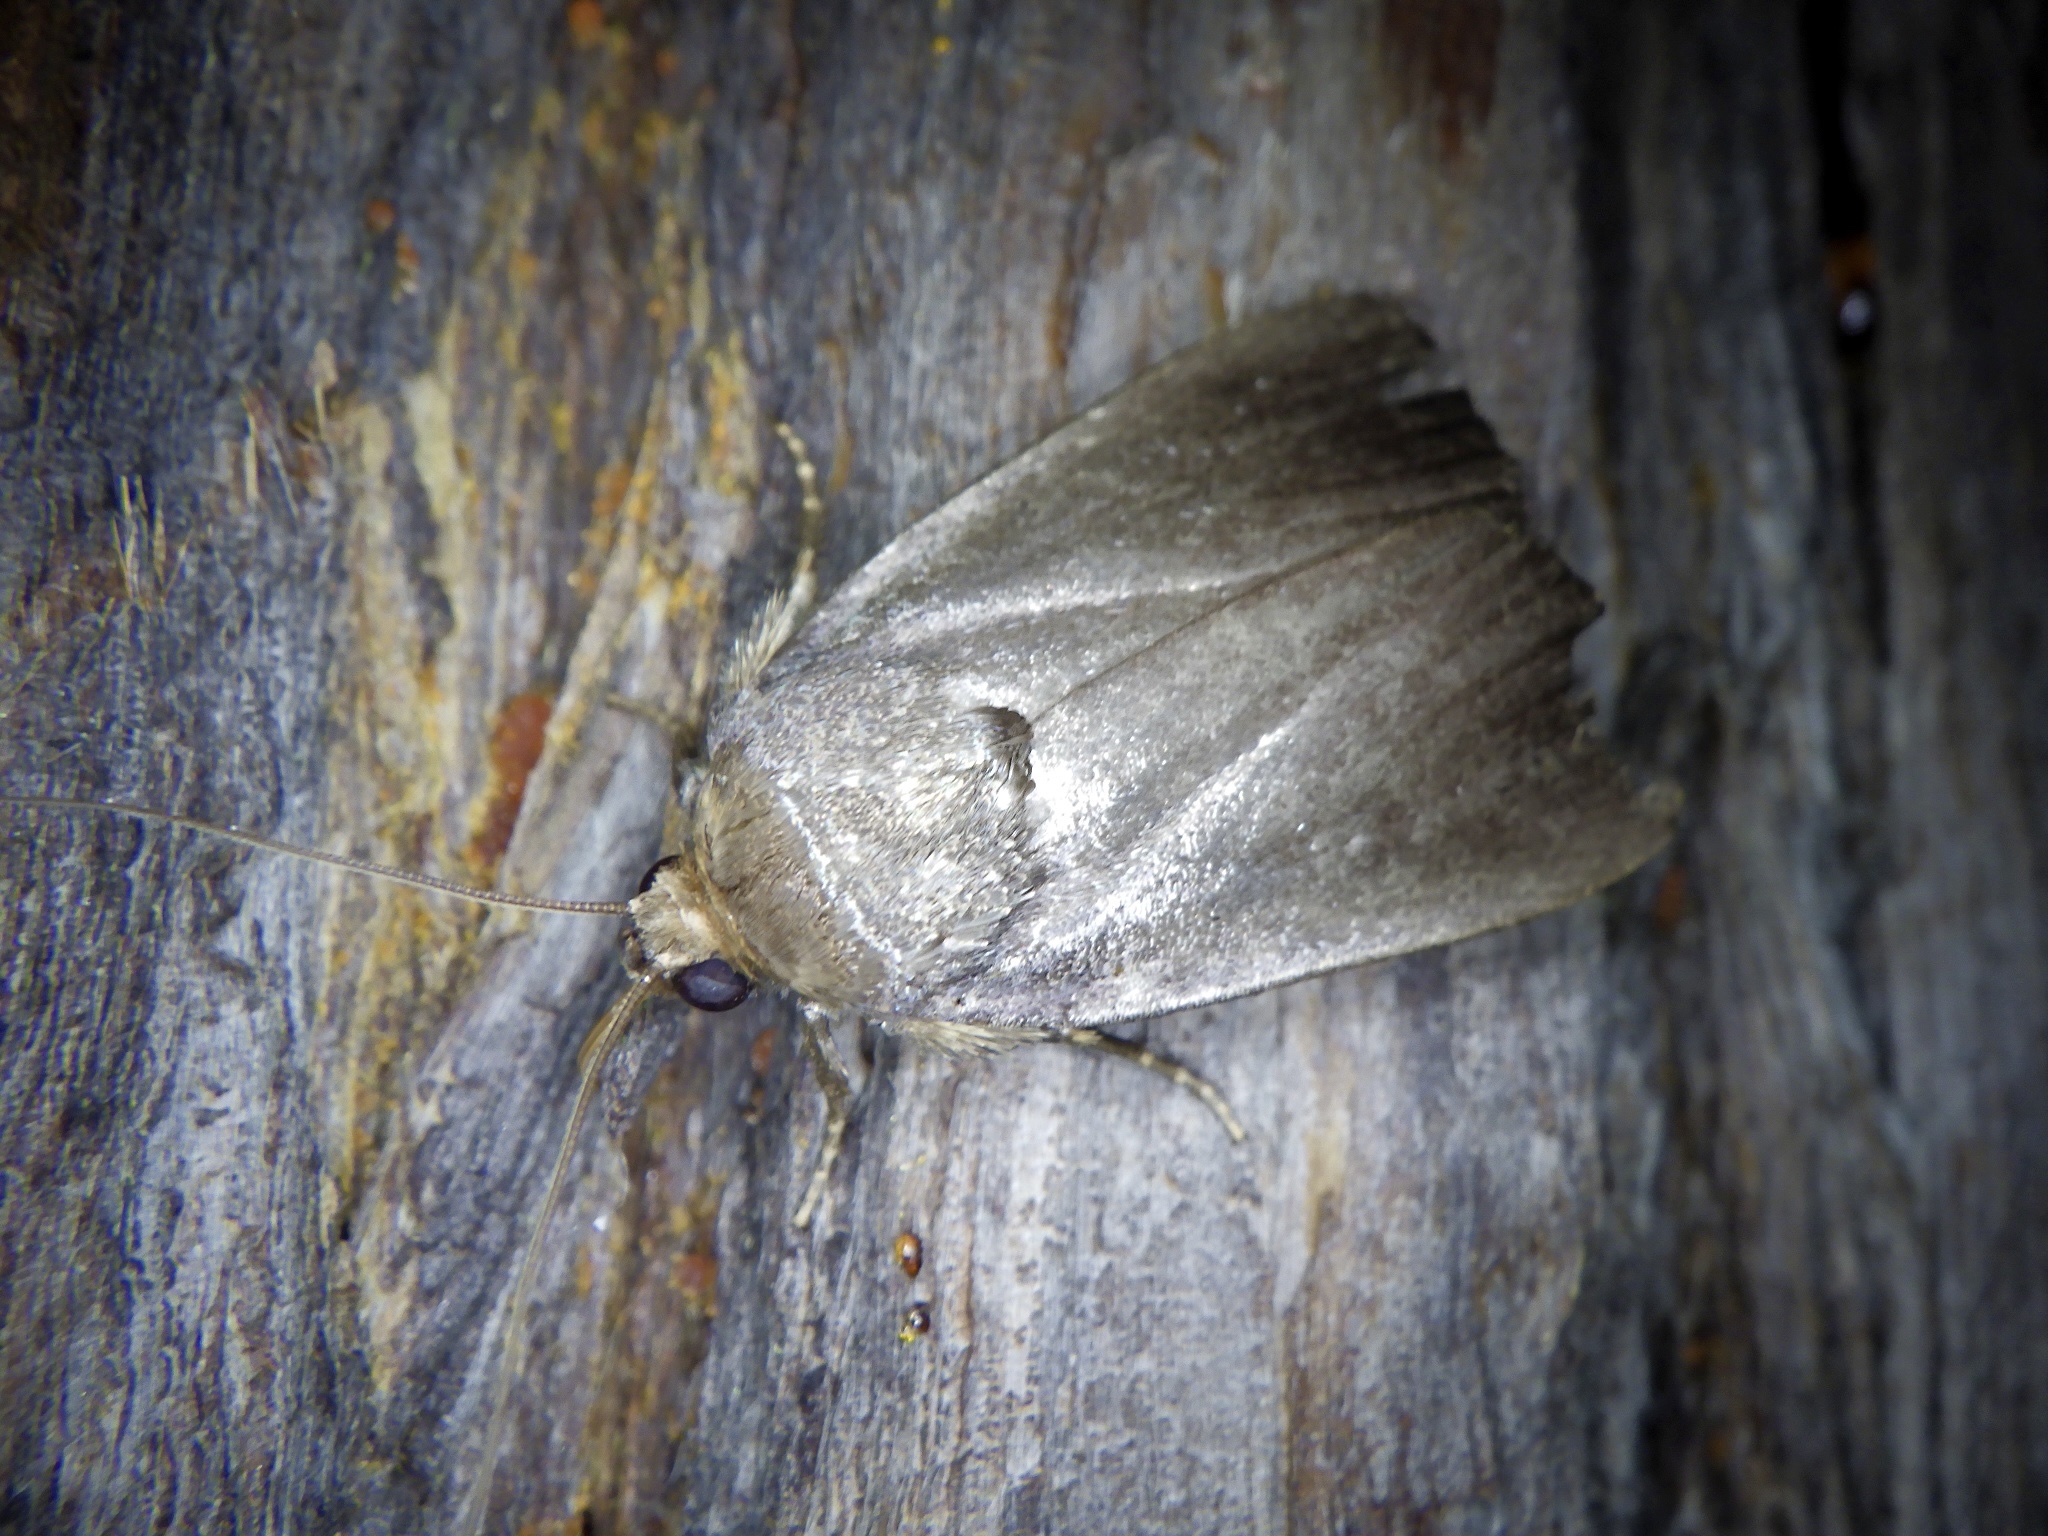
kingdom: Animalia
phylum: Arthropoda
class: Insecta
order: Lepidoptera
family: Noctuidae
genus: Amphipyra
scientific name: Amphipyra livida
